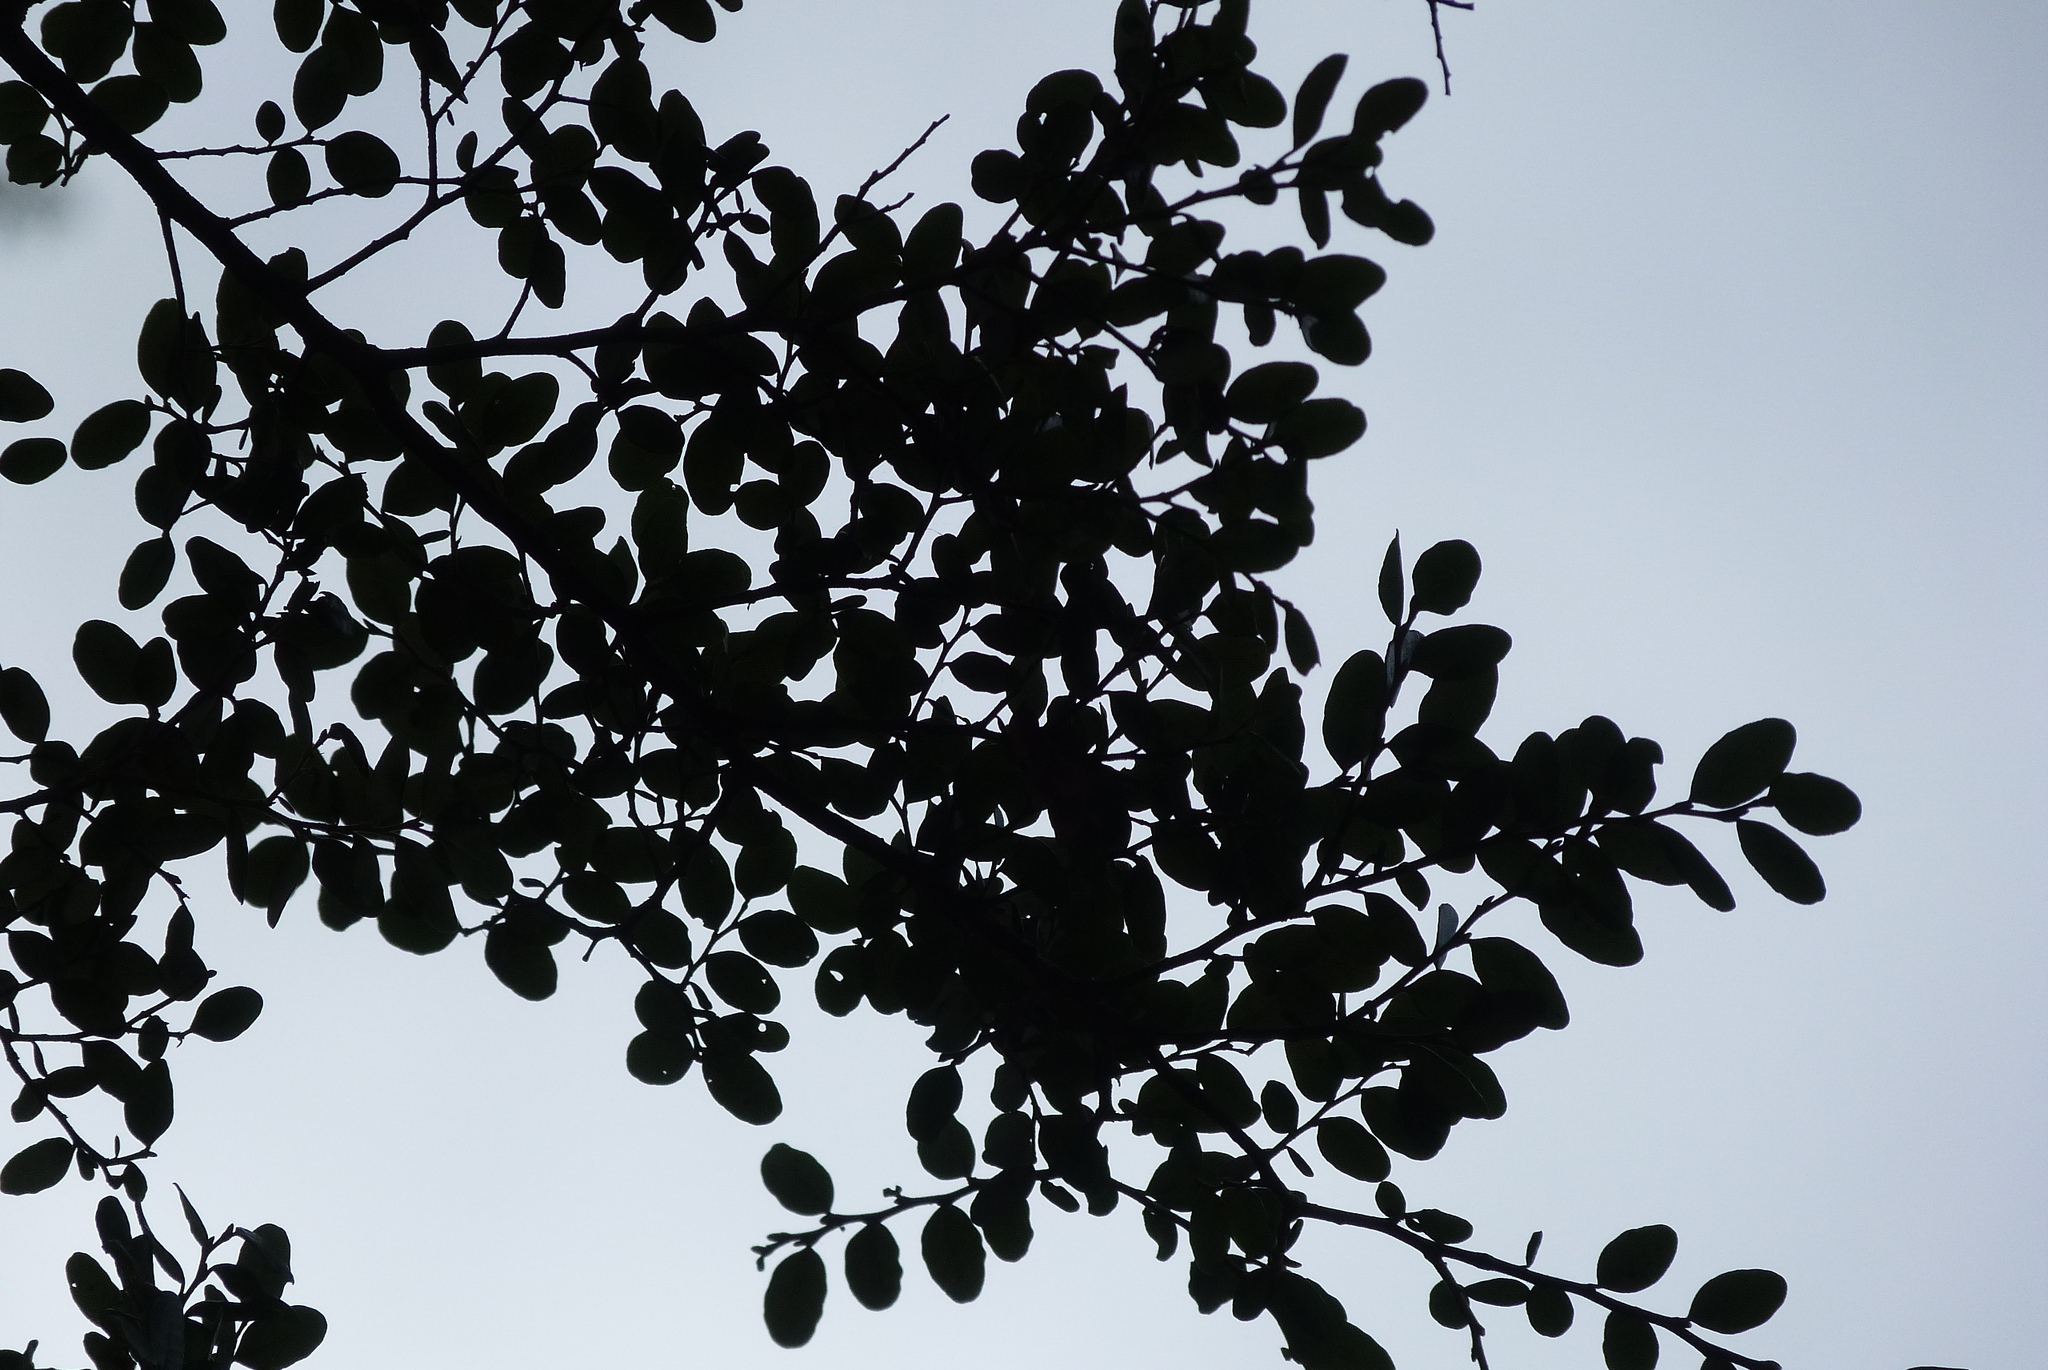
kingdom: Plantae
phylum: Tracheophyta
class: Magnoliopsida
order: Fagales
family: Nothofagaceae
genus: Nothofagus
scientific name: Nothofagus solandri
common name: Black beech
